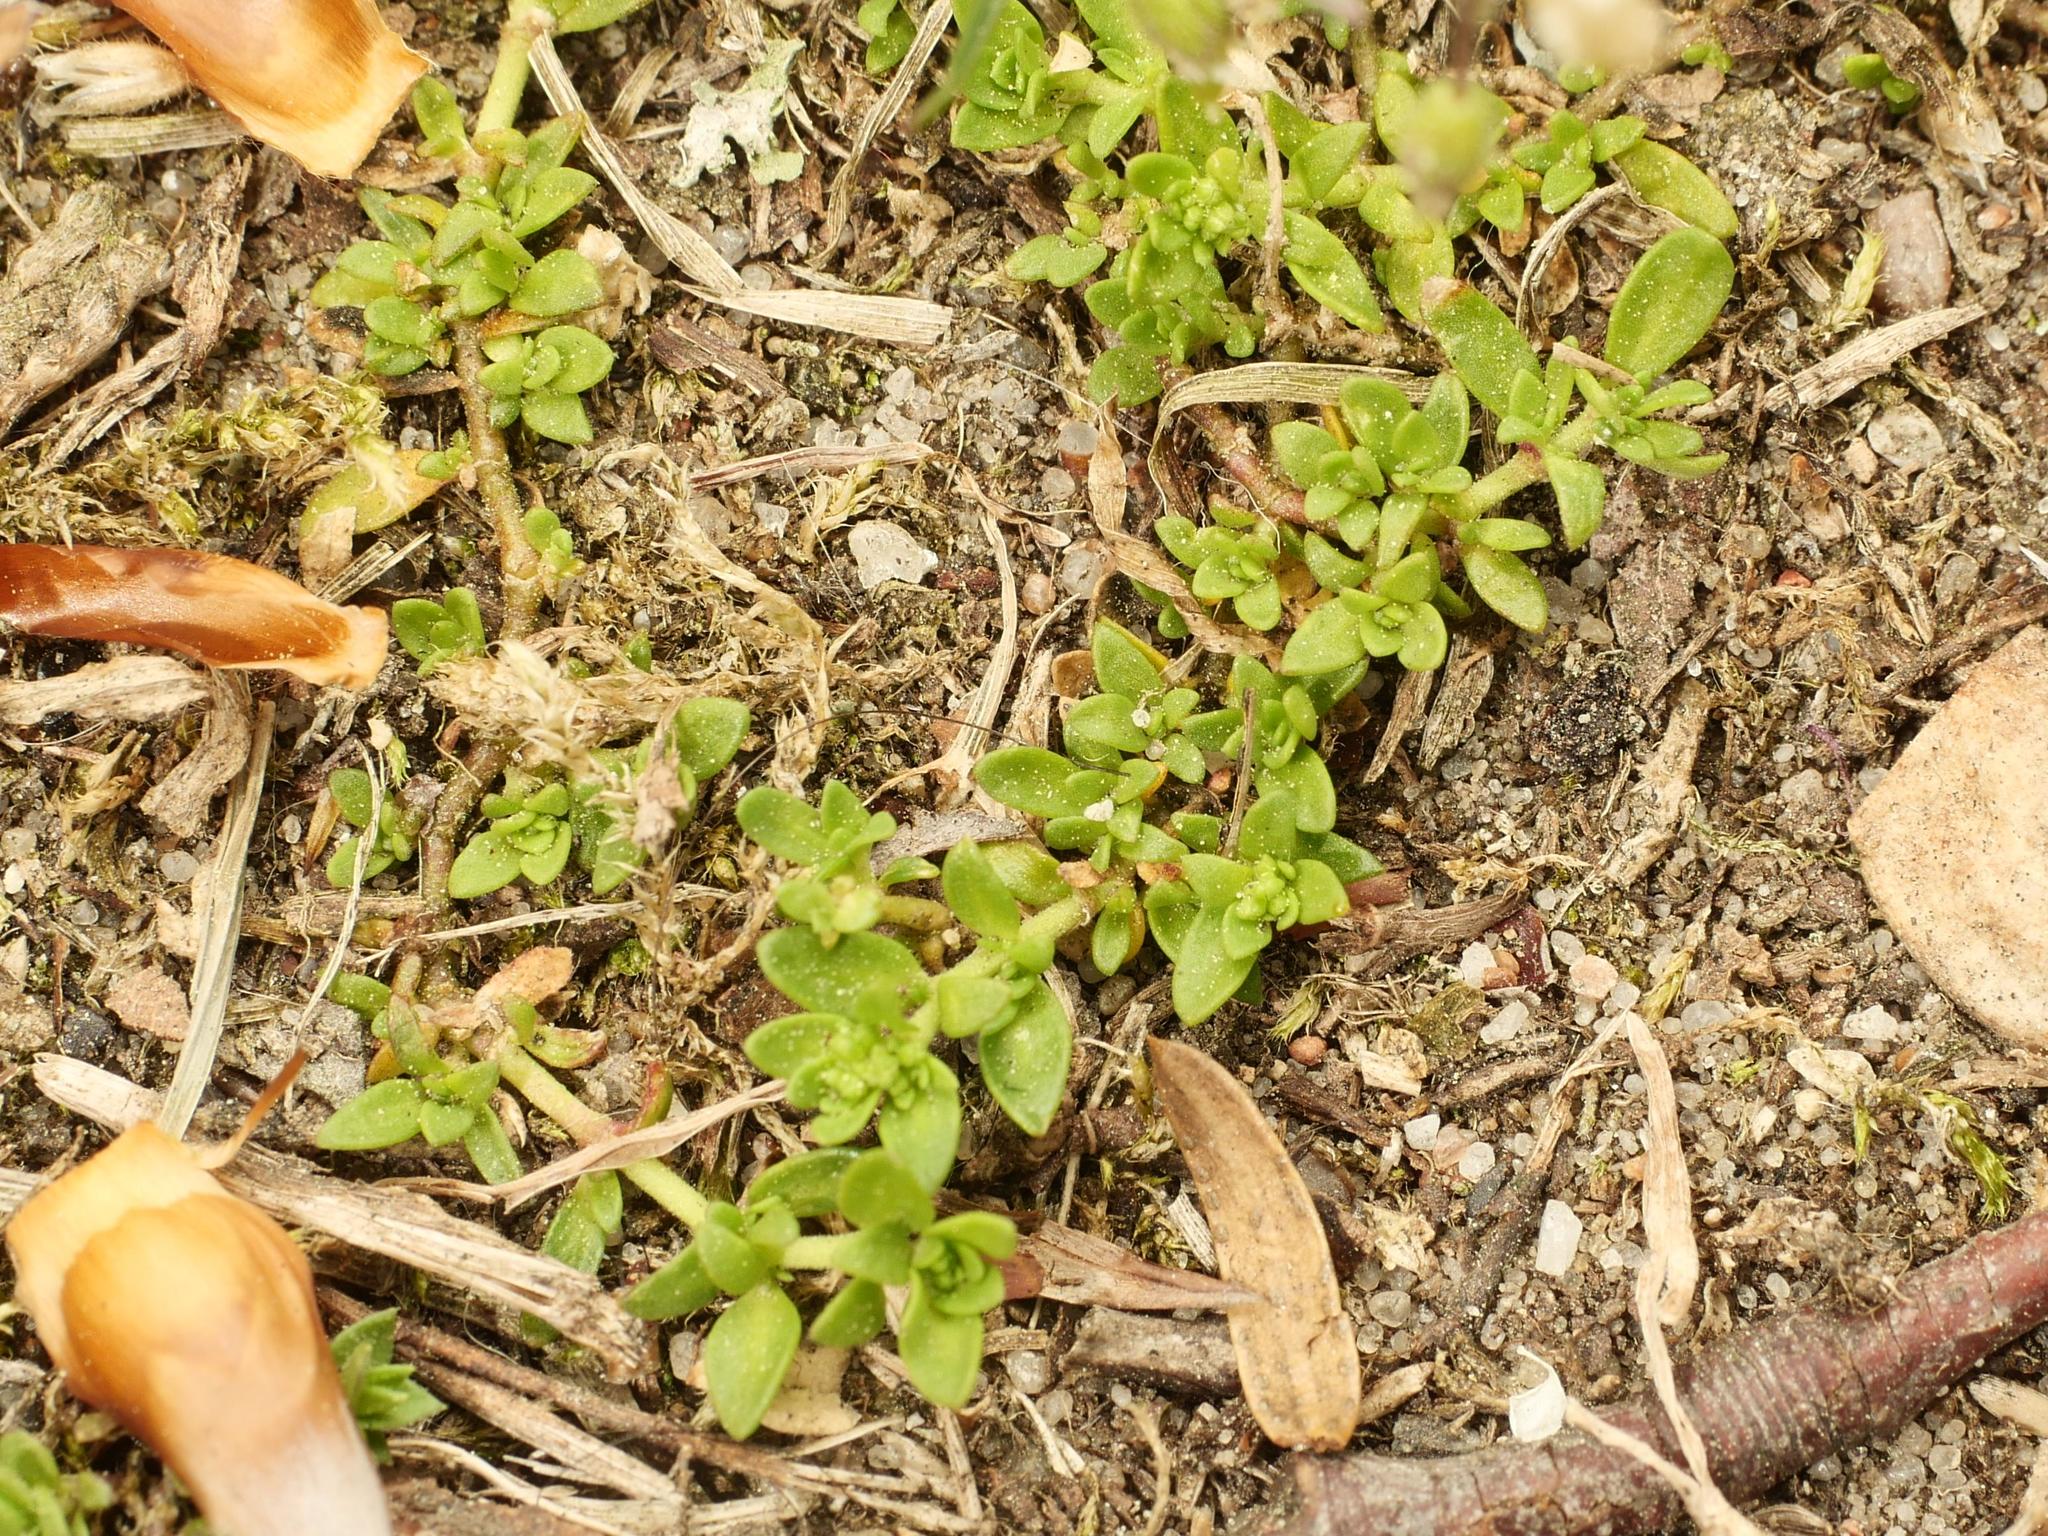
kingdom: Plantae
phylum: Tracheophyta
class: Magnoliopsida
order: Caryophyllales
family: Caryophyllaceae
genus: Herniaria
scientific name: Herniaria glabra
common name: Smooth rupturewort
